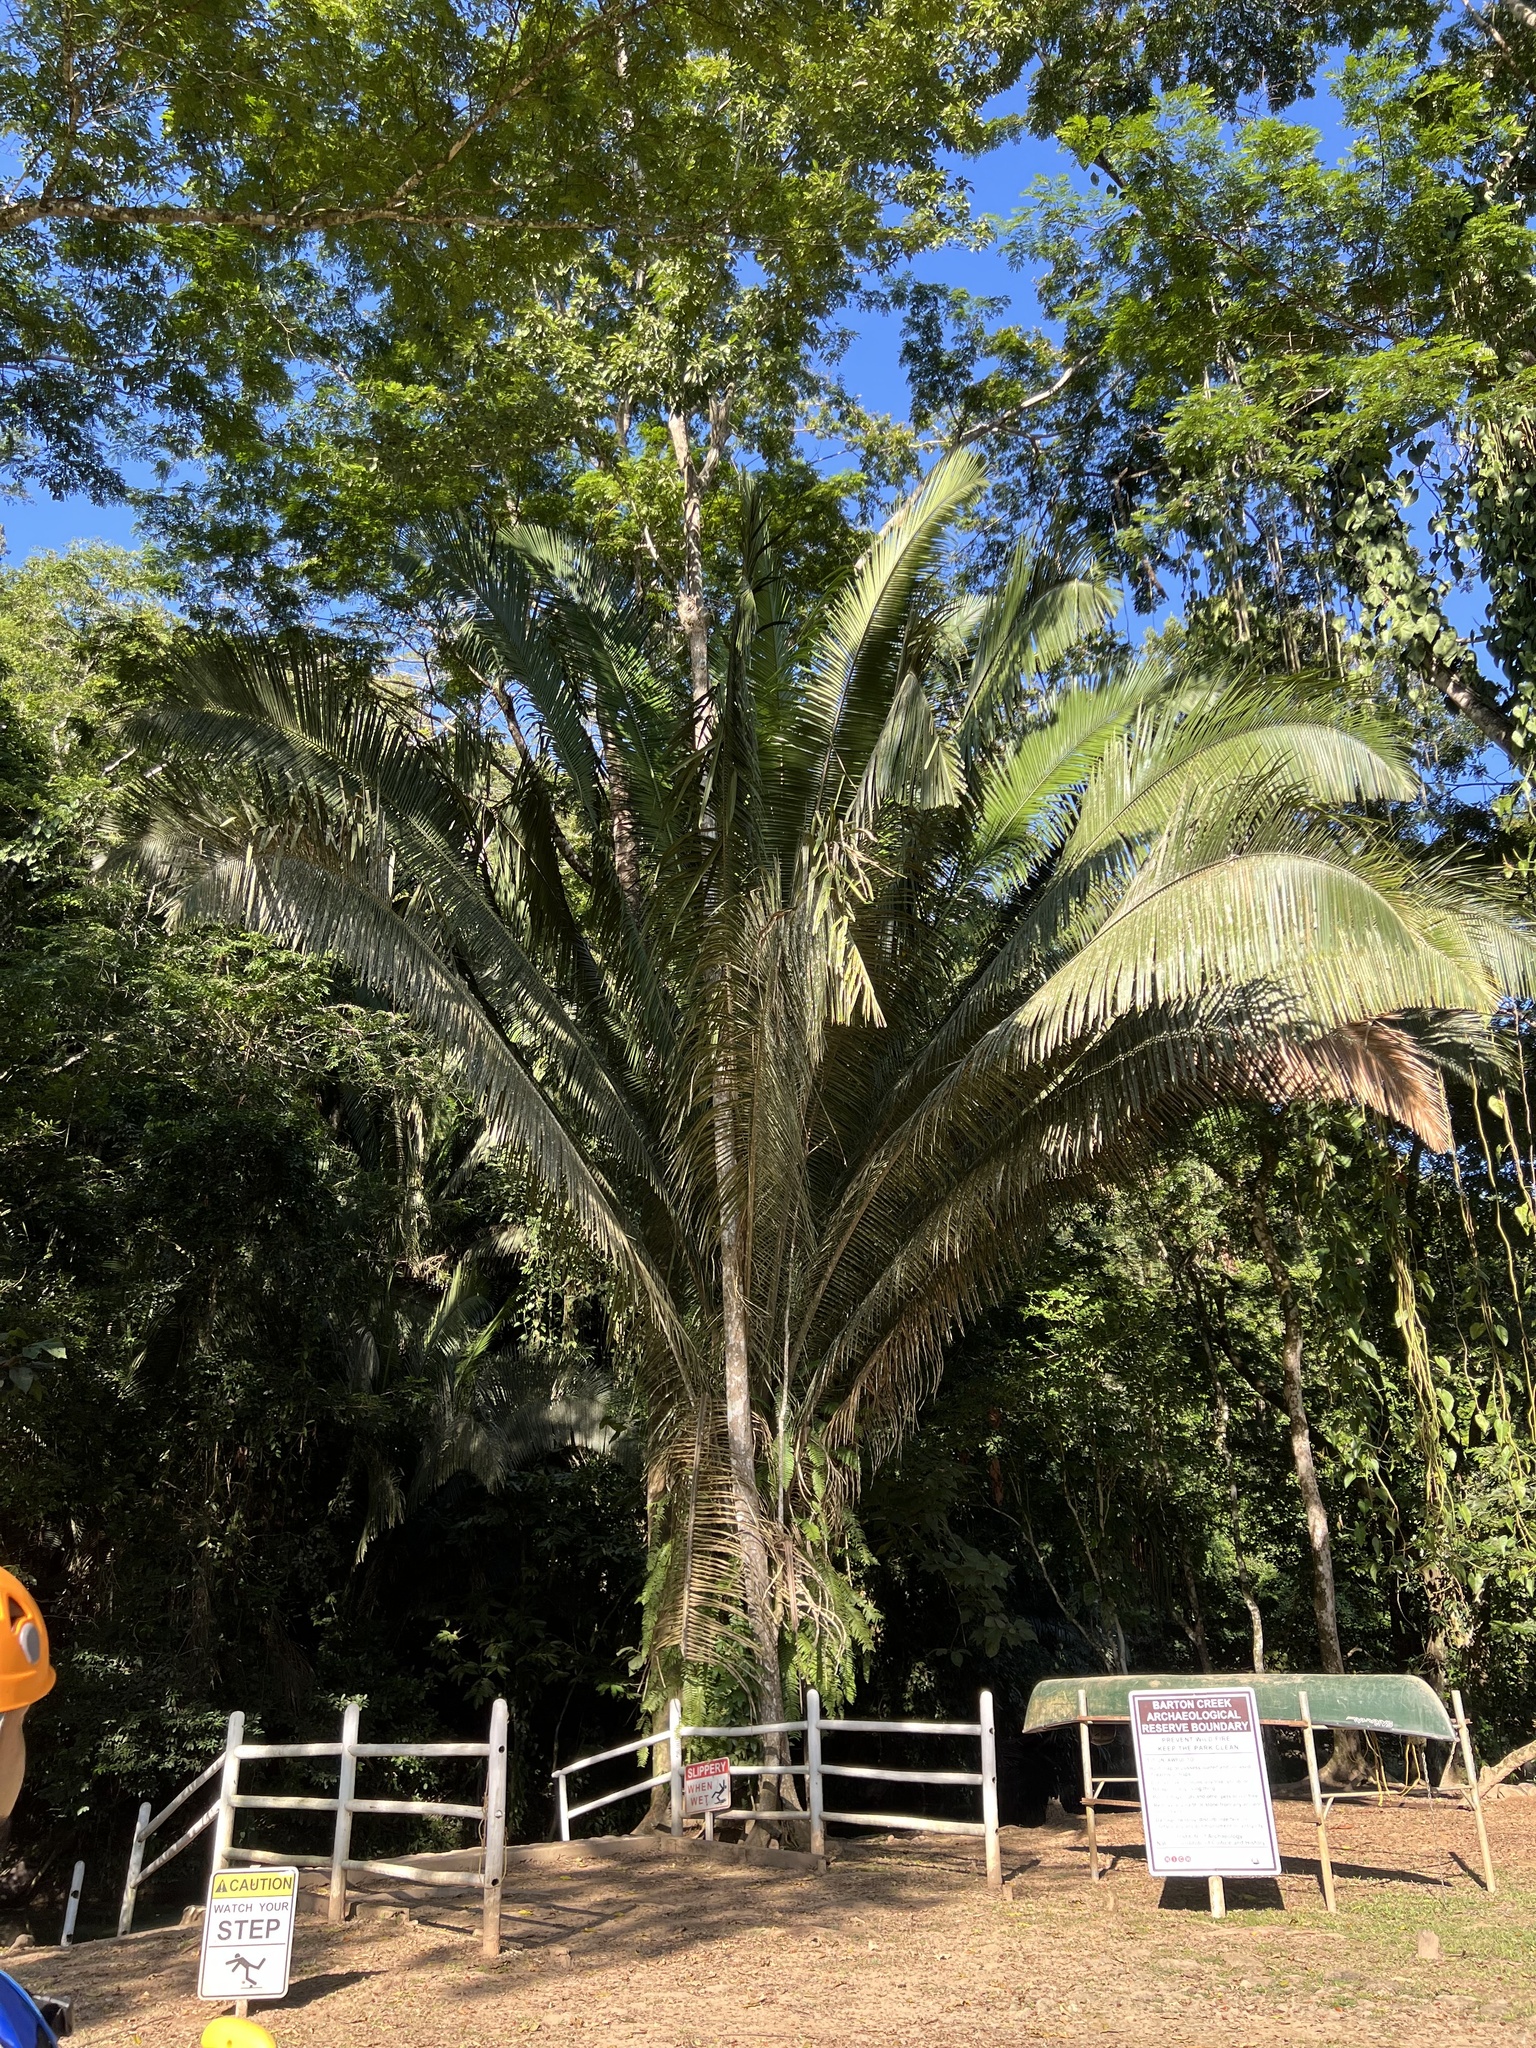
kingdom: Plantae
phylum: Tracheophyta
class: Liliopsida
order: Arecales
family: Arecaceae
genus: Attalea
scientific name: Attalea cohune
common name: Cohune palm
